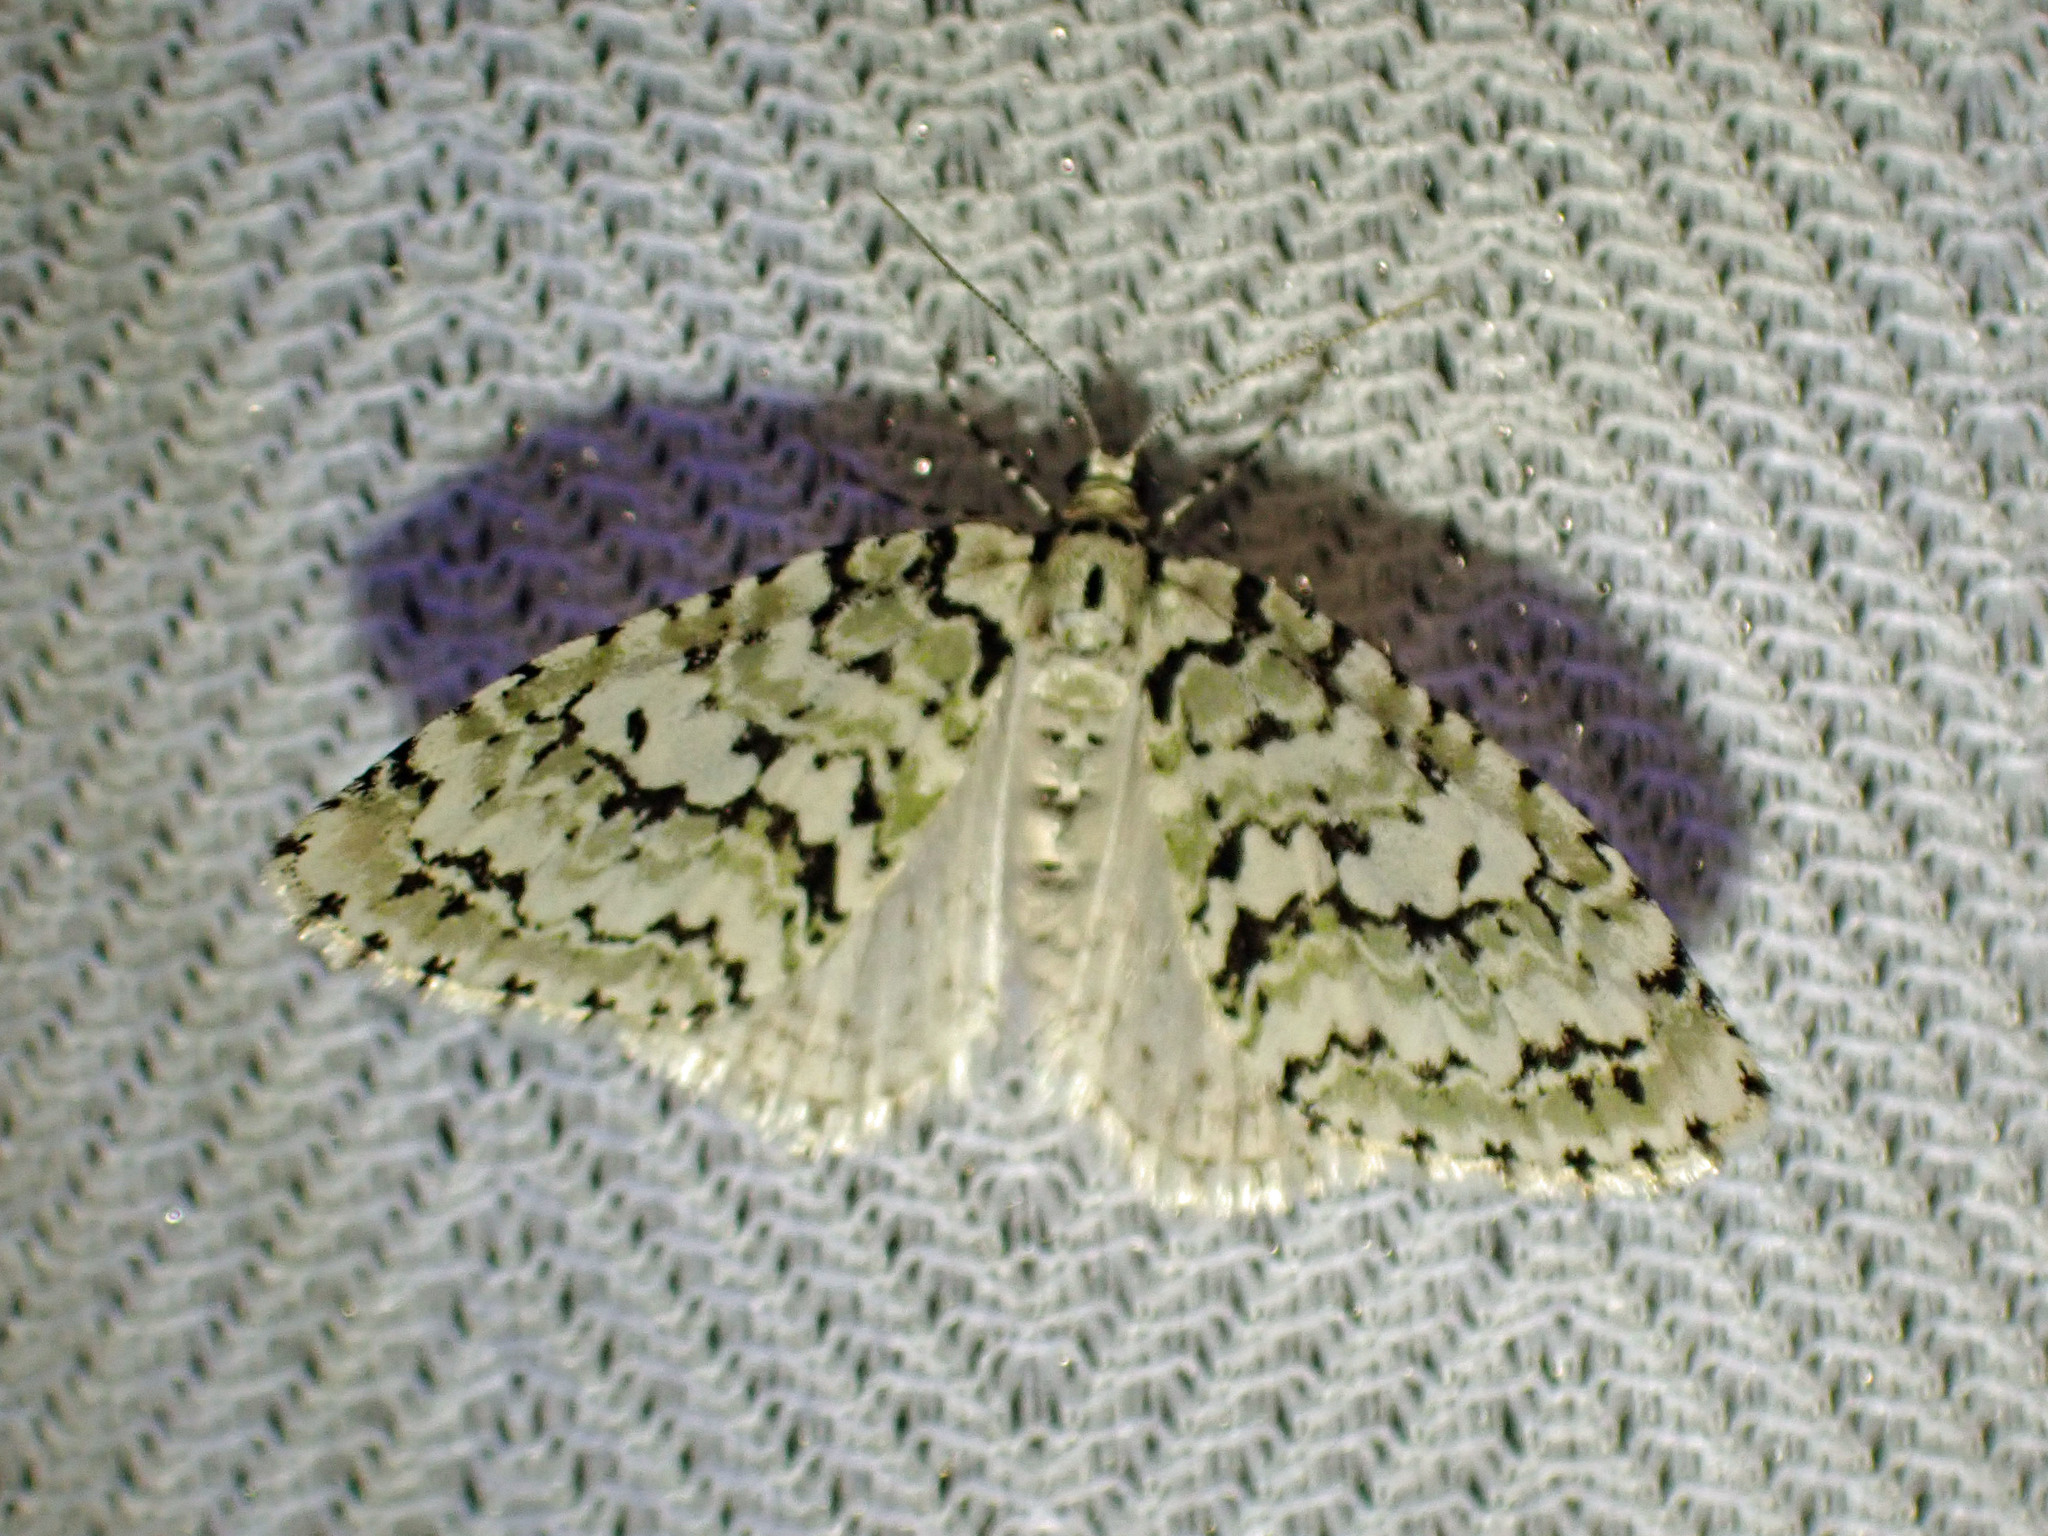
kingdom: Animalia
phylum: Arthropoda
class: Insecta
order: Lepidoptera
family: Geometridae
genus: Cladara
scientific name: Cladara atroliturata
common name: Scribbler
